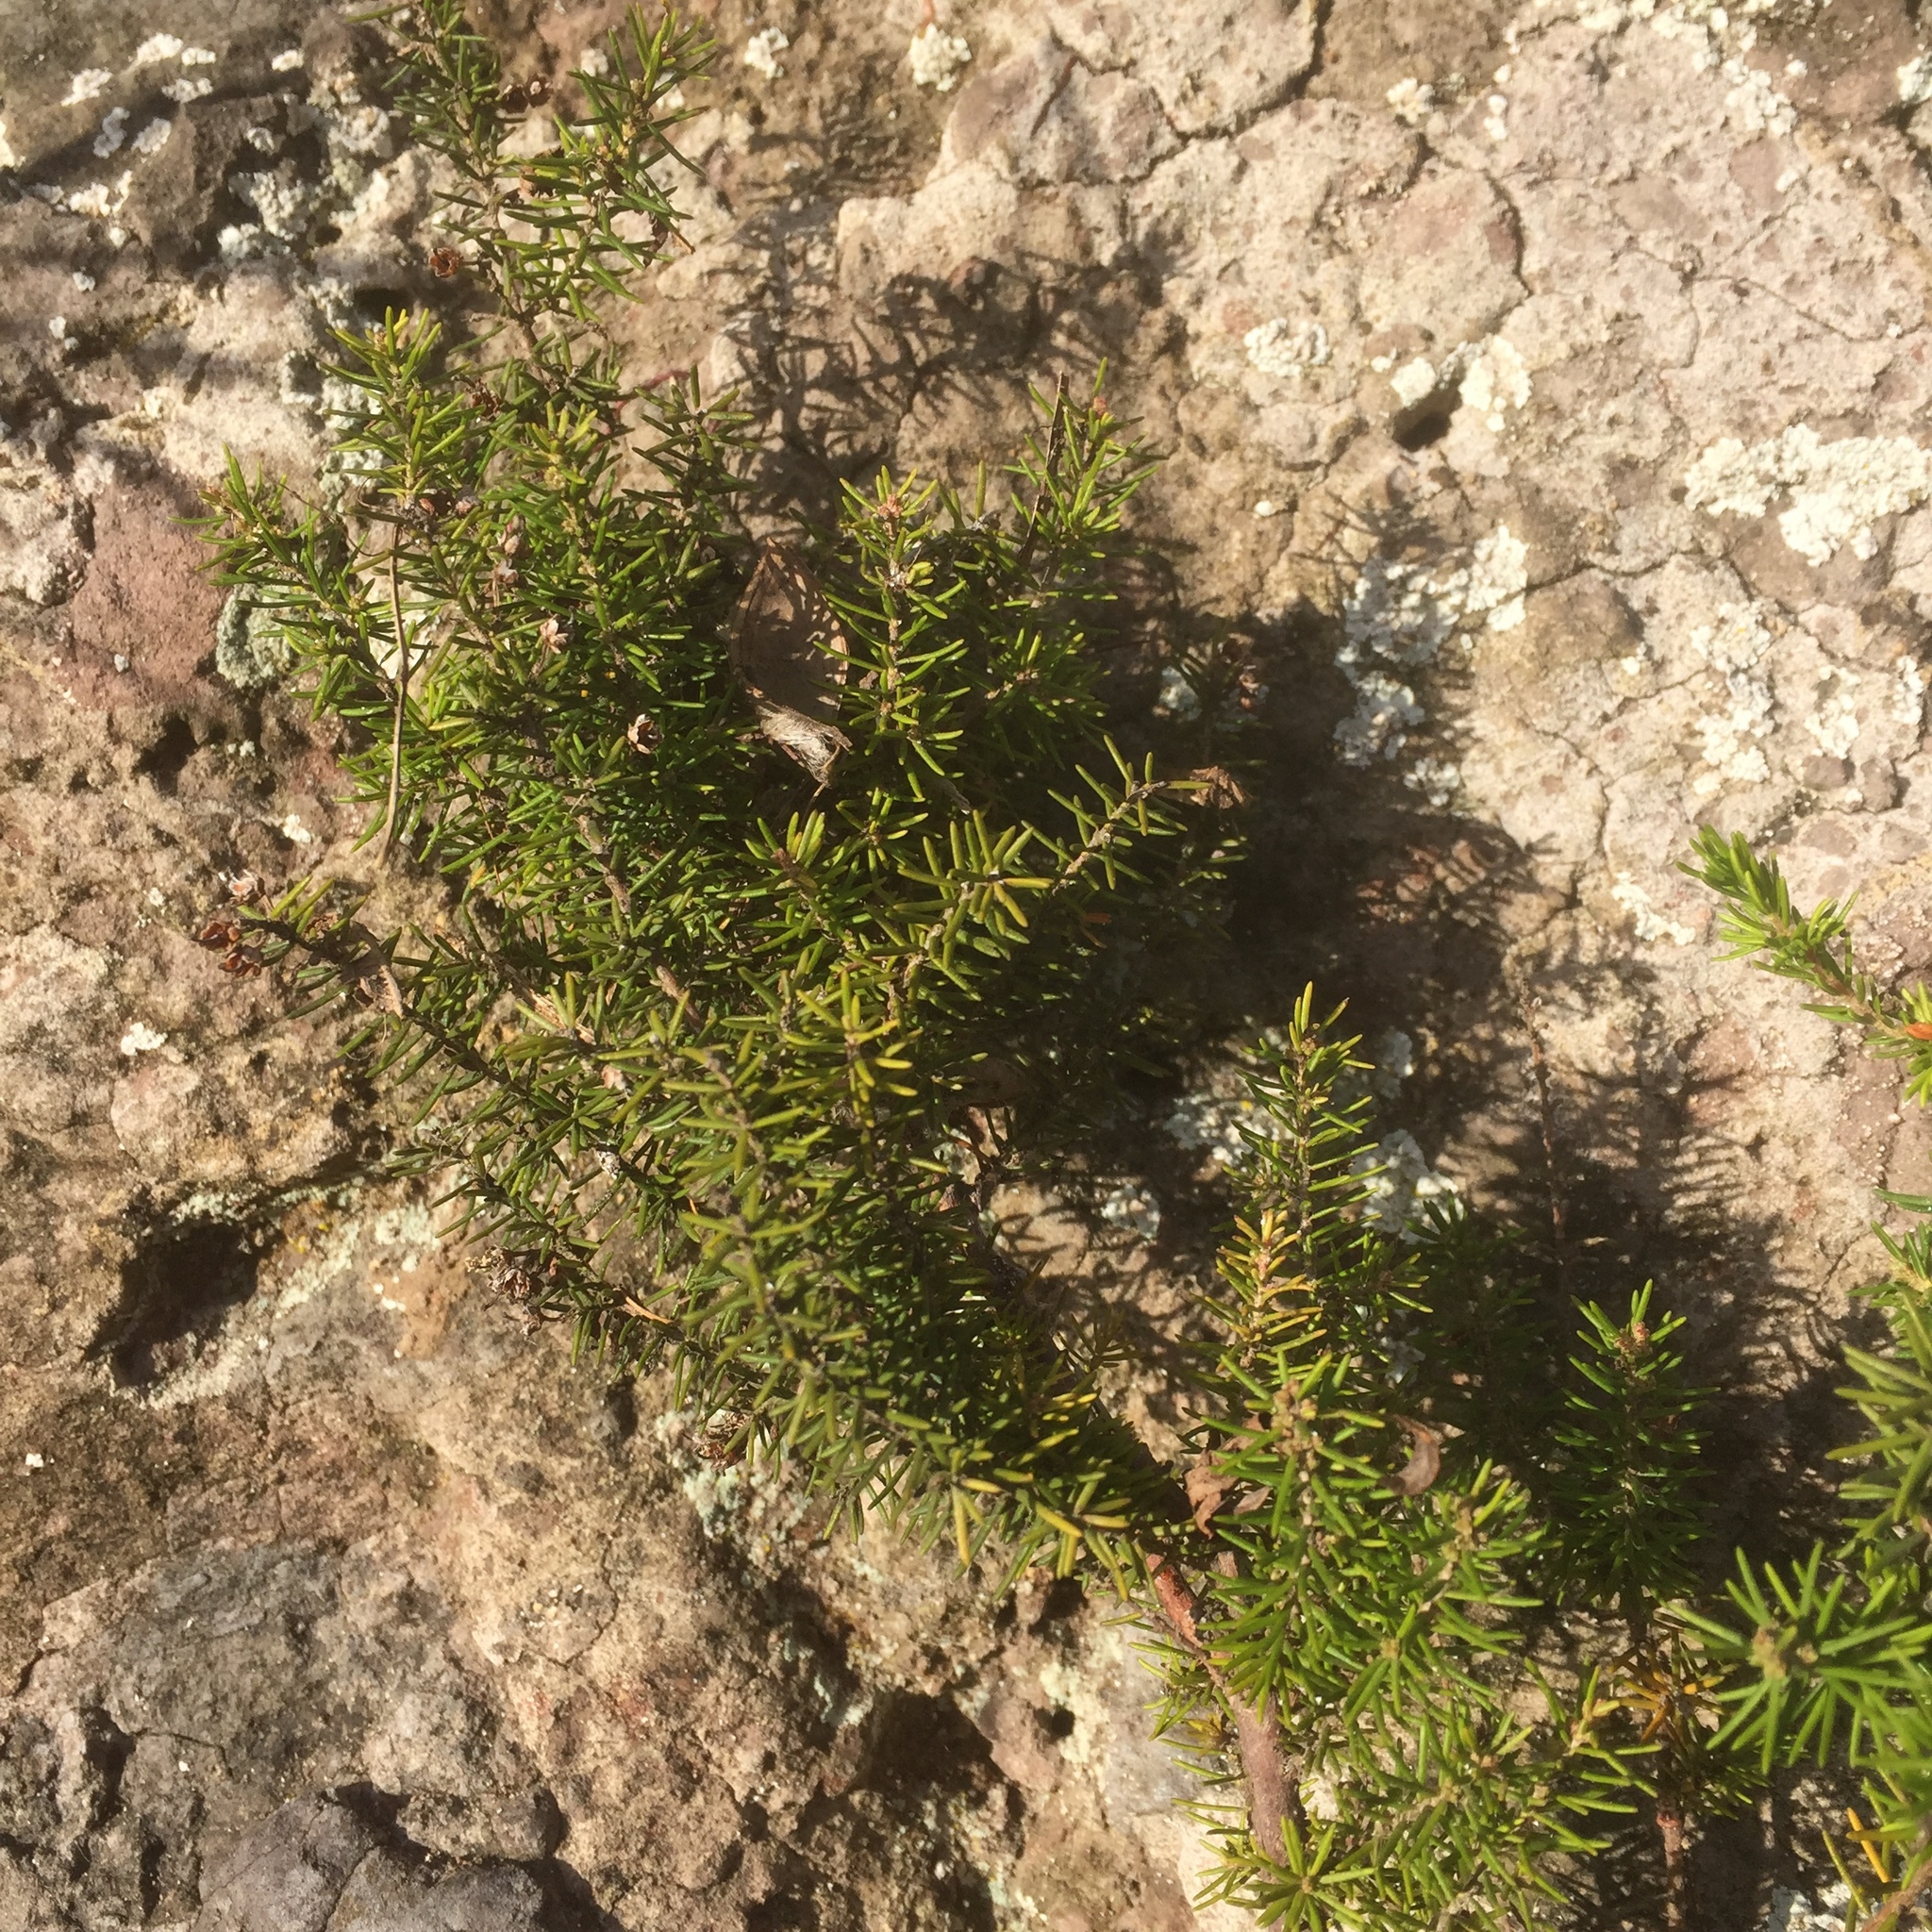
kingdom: Plantae
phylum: Tracheophyta
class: Magnoliopsida
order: Ericales
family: Ericaceae
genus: Erica
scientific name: Erica maderensis
